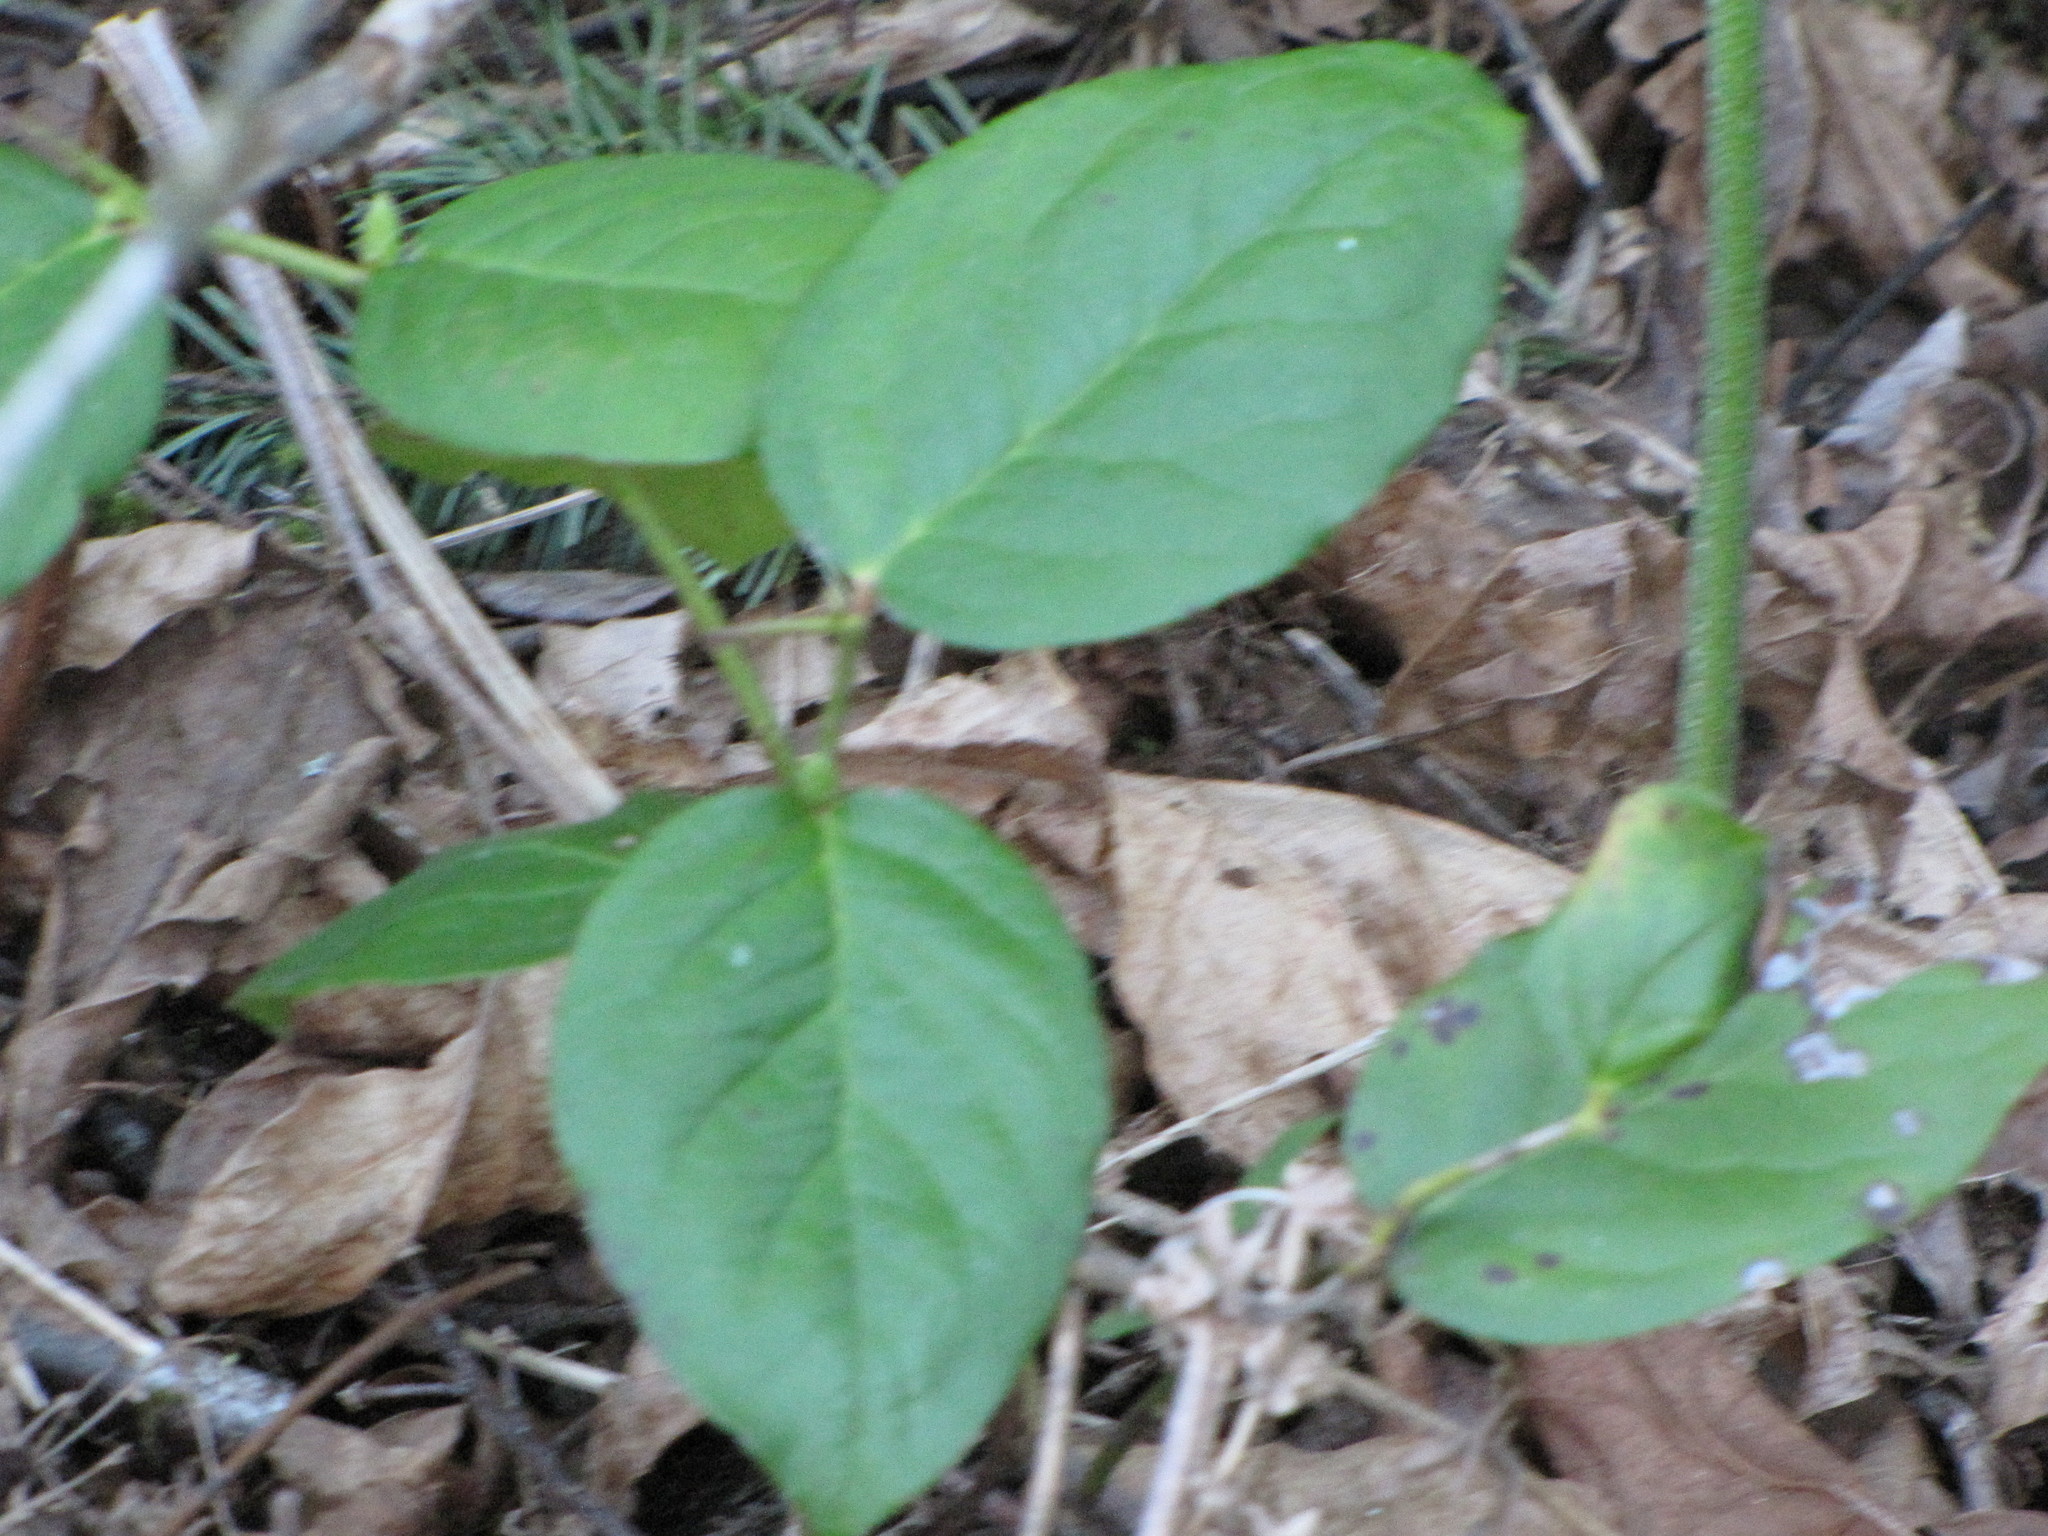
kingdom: Plantae
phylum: Tracheophyta
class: Magnoliopsida
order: Ericales
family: Ericaceae
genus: Gaultheria
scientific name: Gaultheria shallon
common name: Shallon
